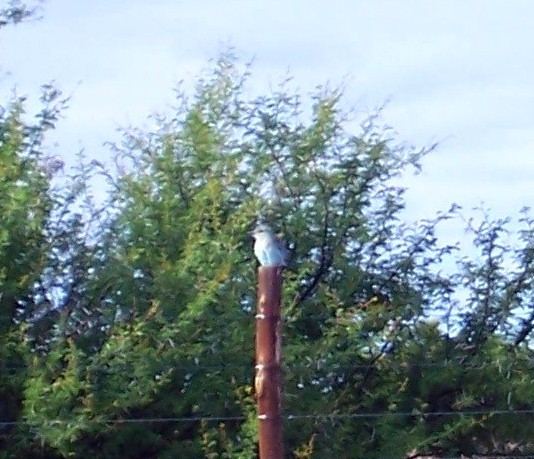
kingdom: Animalia
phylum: Chordata
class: Aves
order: Coraciiformes
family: Coraciidae
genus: Coracias
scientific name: Coracias garrulus
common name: European roller
